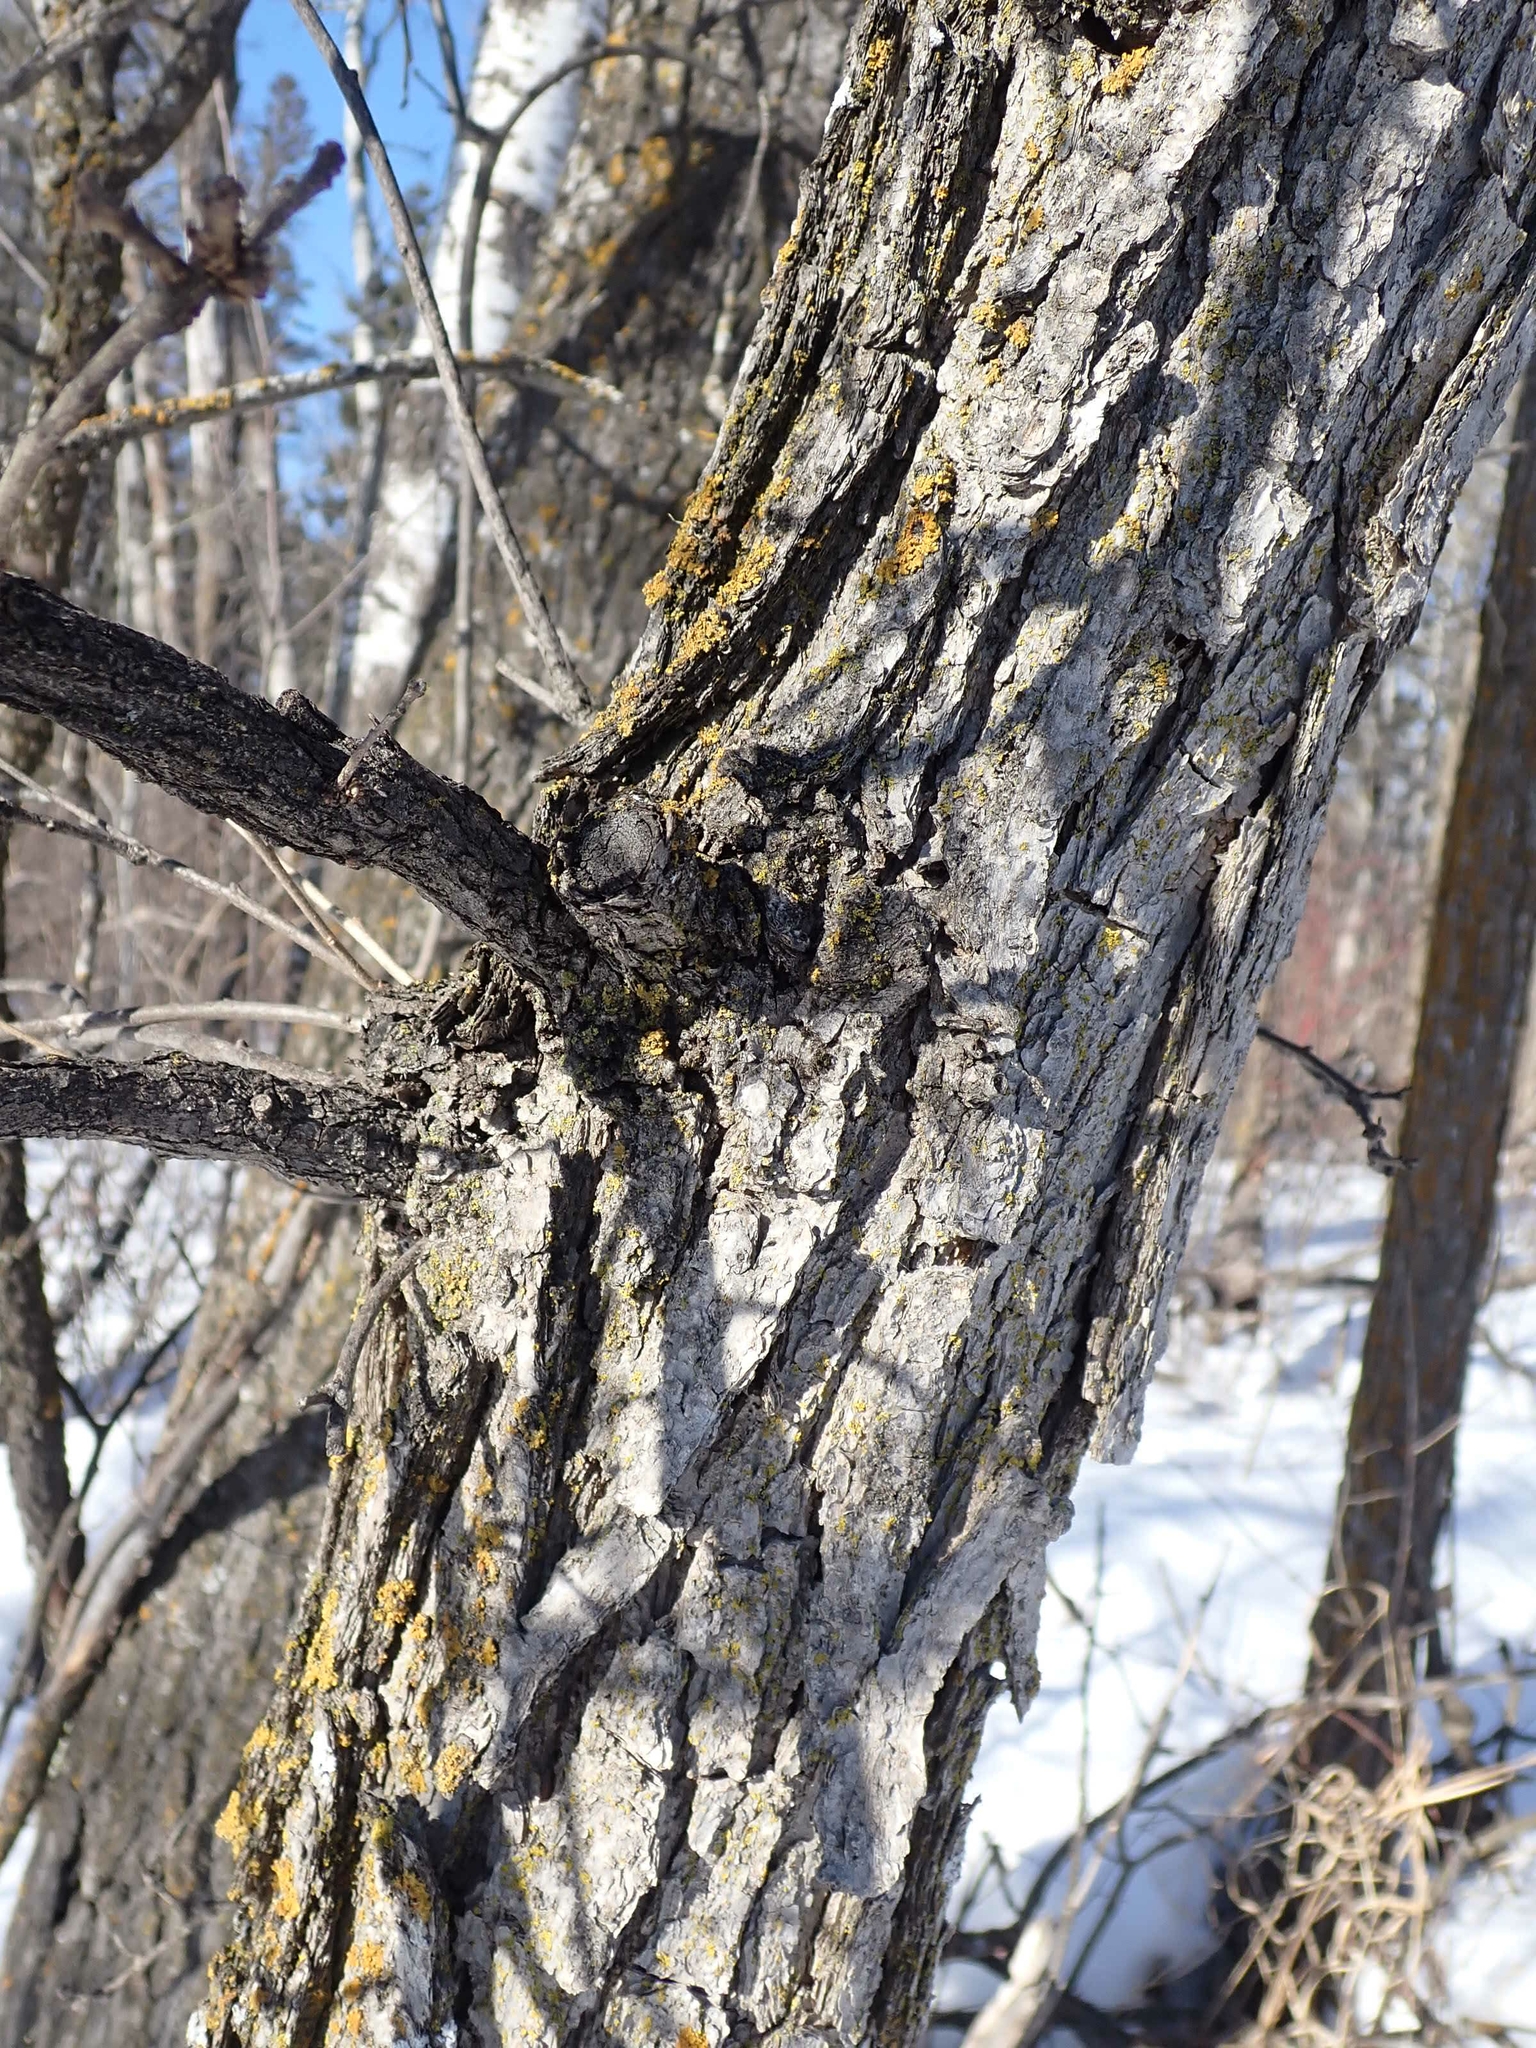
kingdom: Plantae
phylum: Tracheophyta
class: Magnoliopsida
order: Fagales
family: Fagaceae
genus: Quercus
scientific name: Quercus macrocarpa
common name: Bur oak
